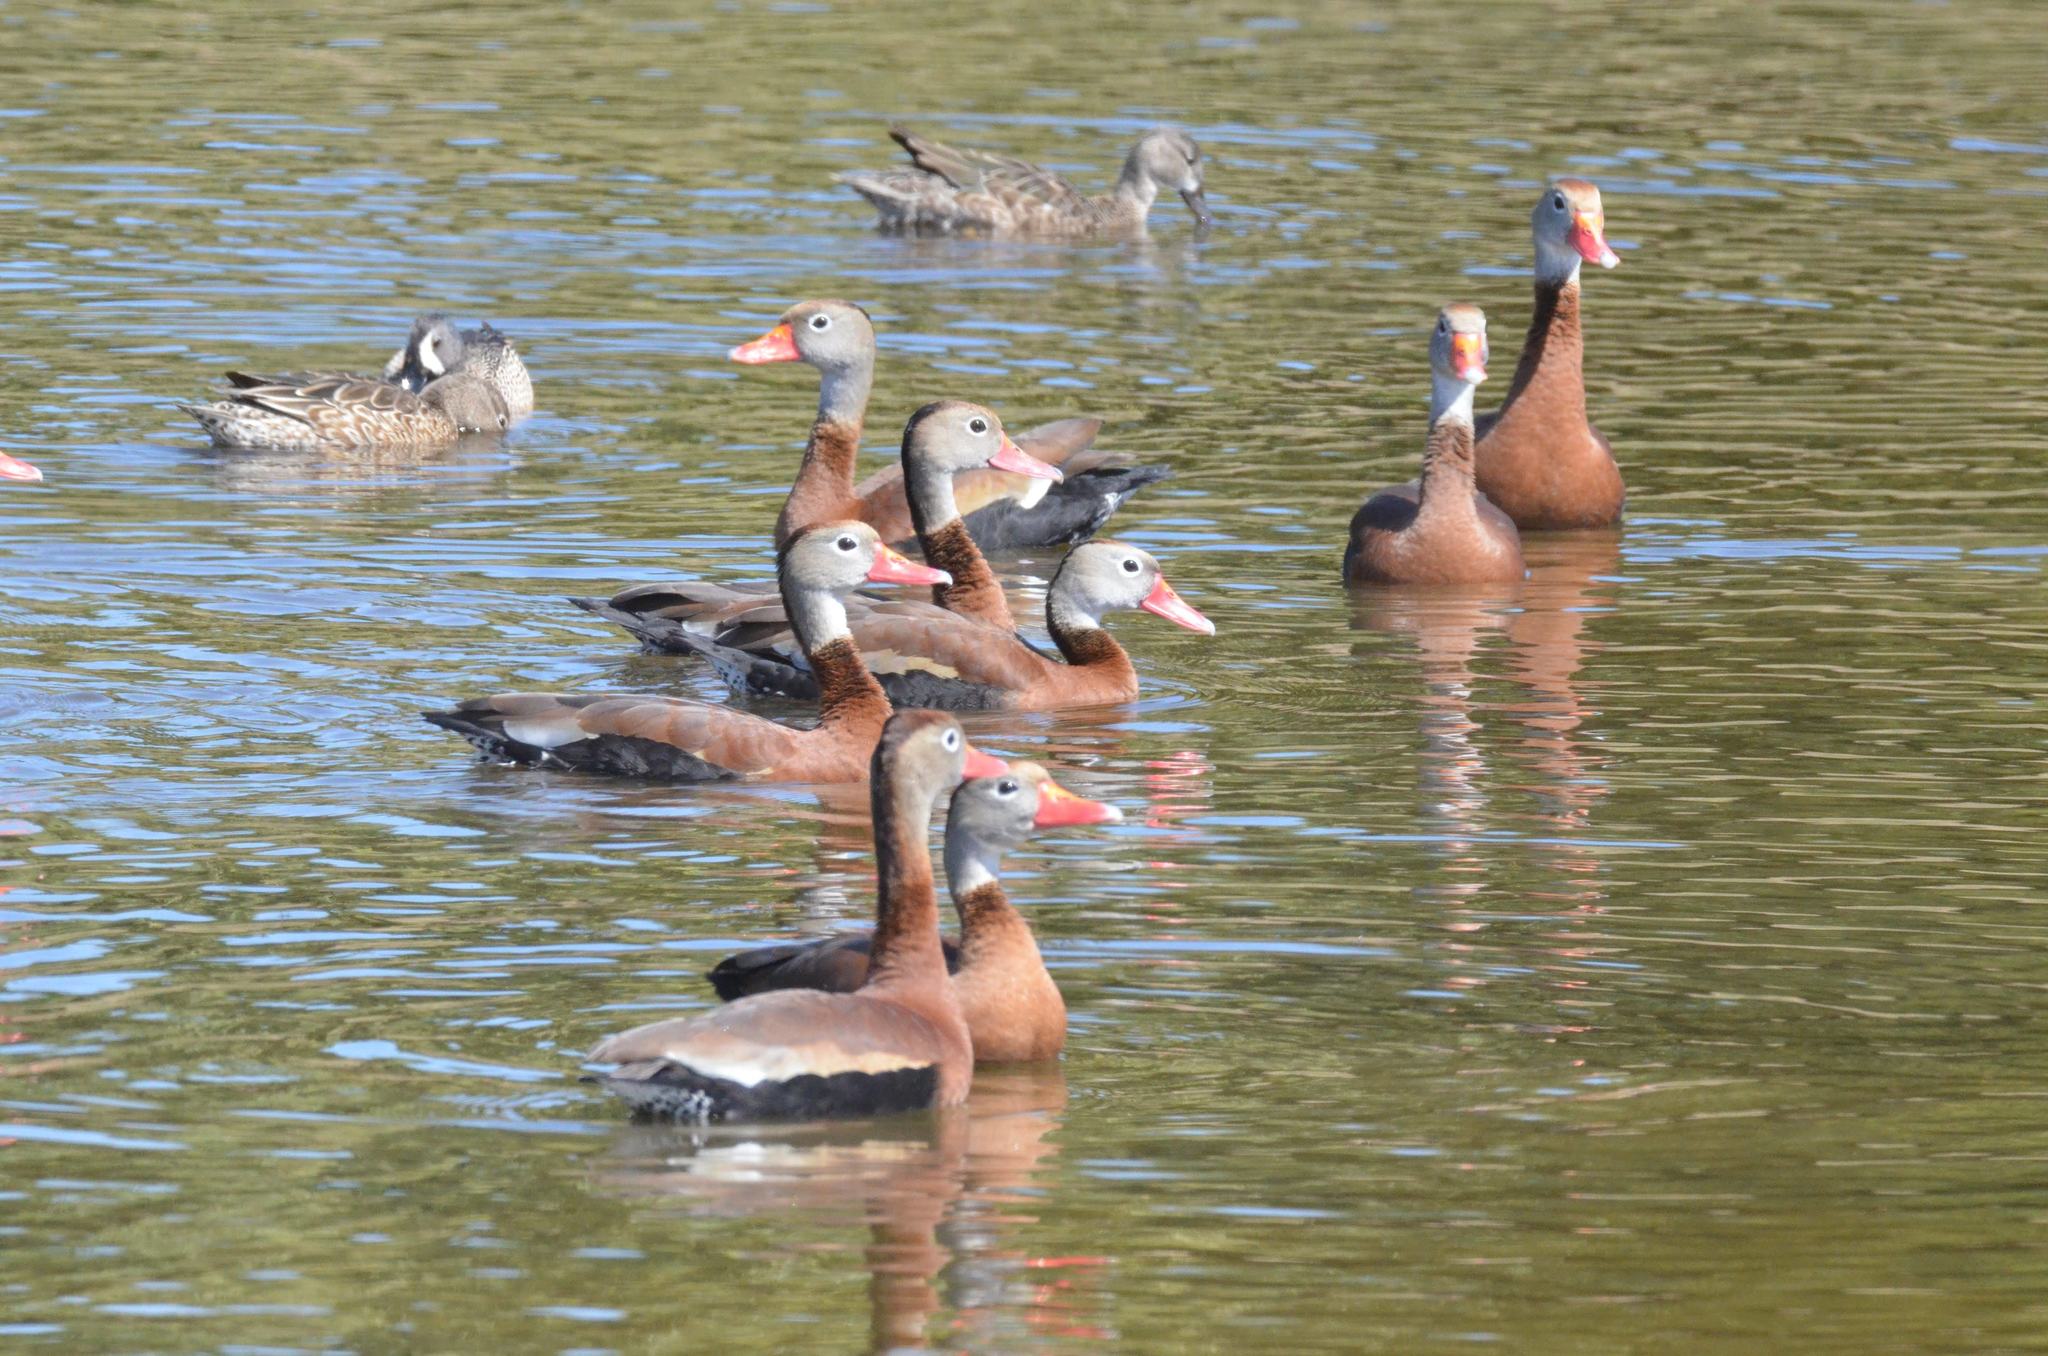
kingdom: Animalia
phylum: Chordata
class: Aves
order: Anseriformes
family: Anatidae
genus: Dendrocygna
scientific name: Dendrocygna autumnalis
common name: Black-bellied whistling duck
